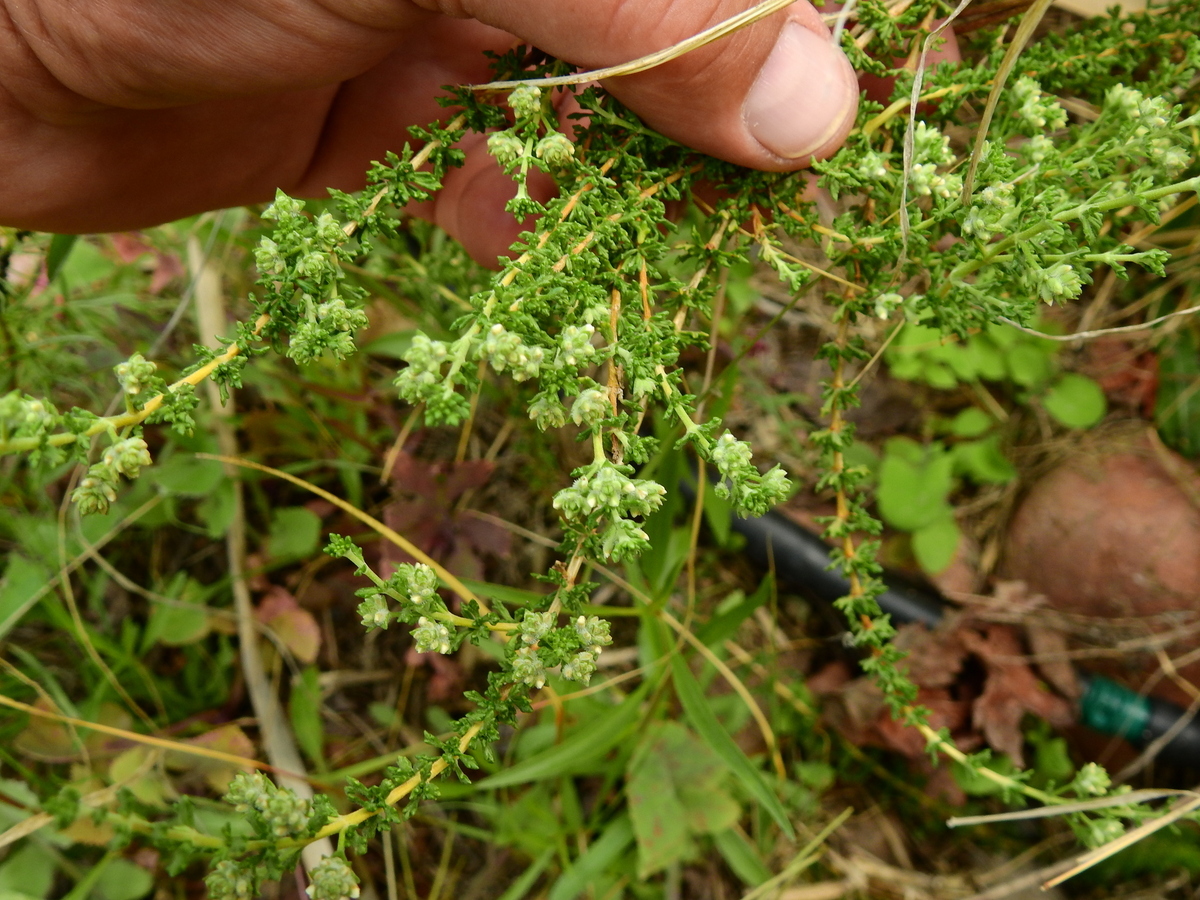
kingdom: Plantae
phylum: Tracheophyta
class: Magnoliopsida
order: Lamiales
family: Verbenaceae
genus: Acantholippia
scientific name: Acantholippia seriphioides
